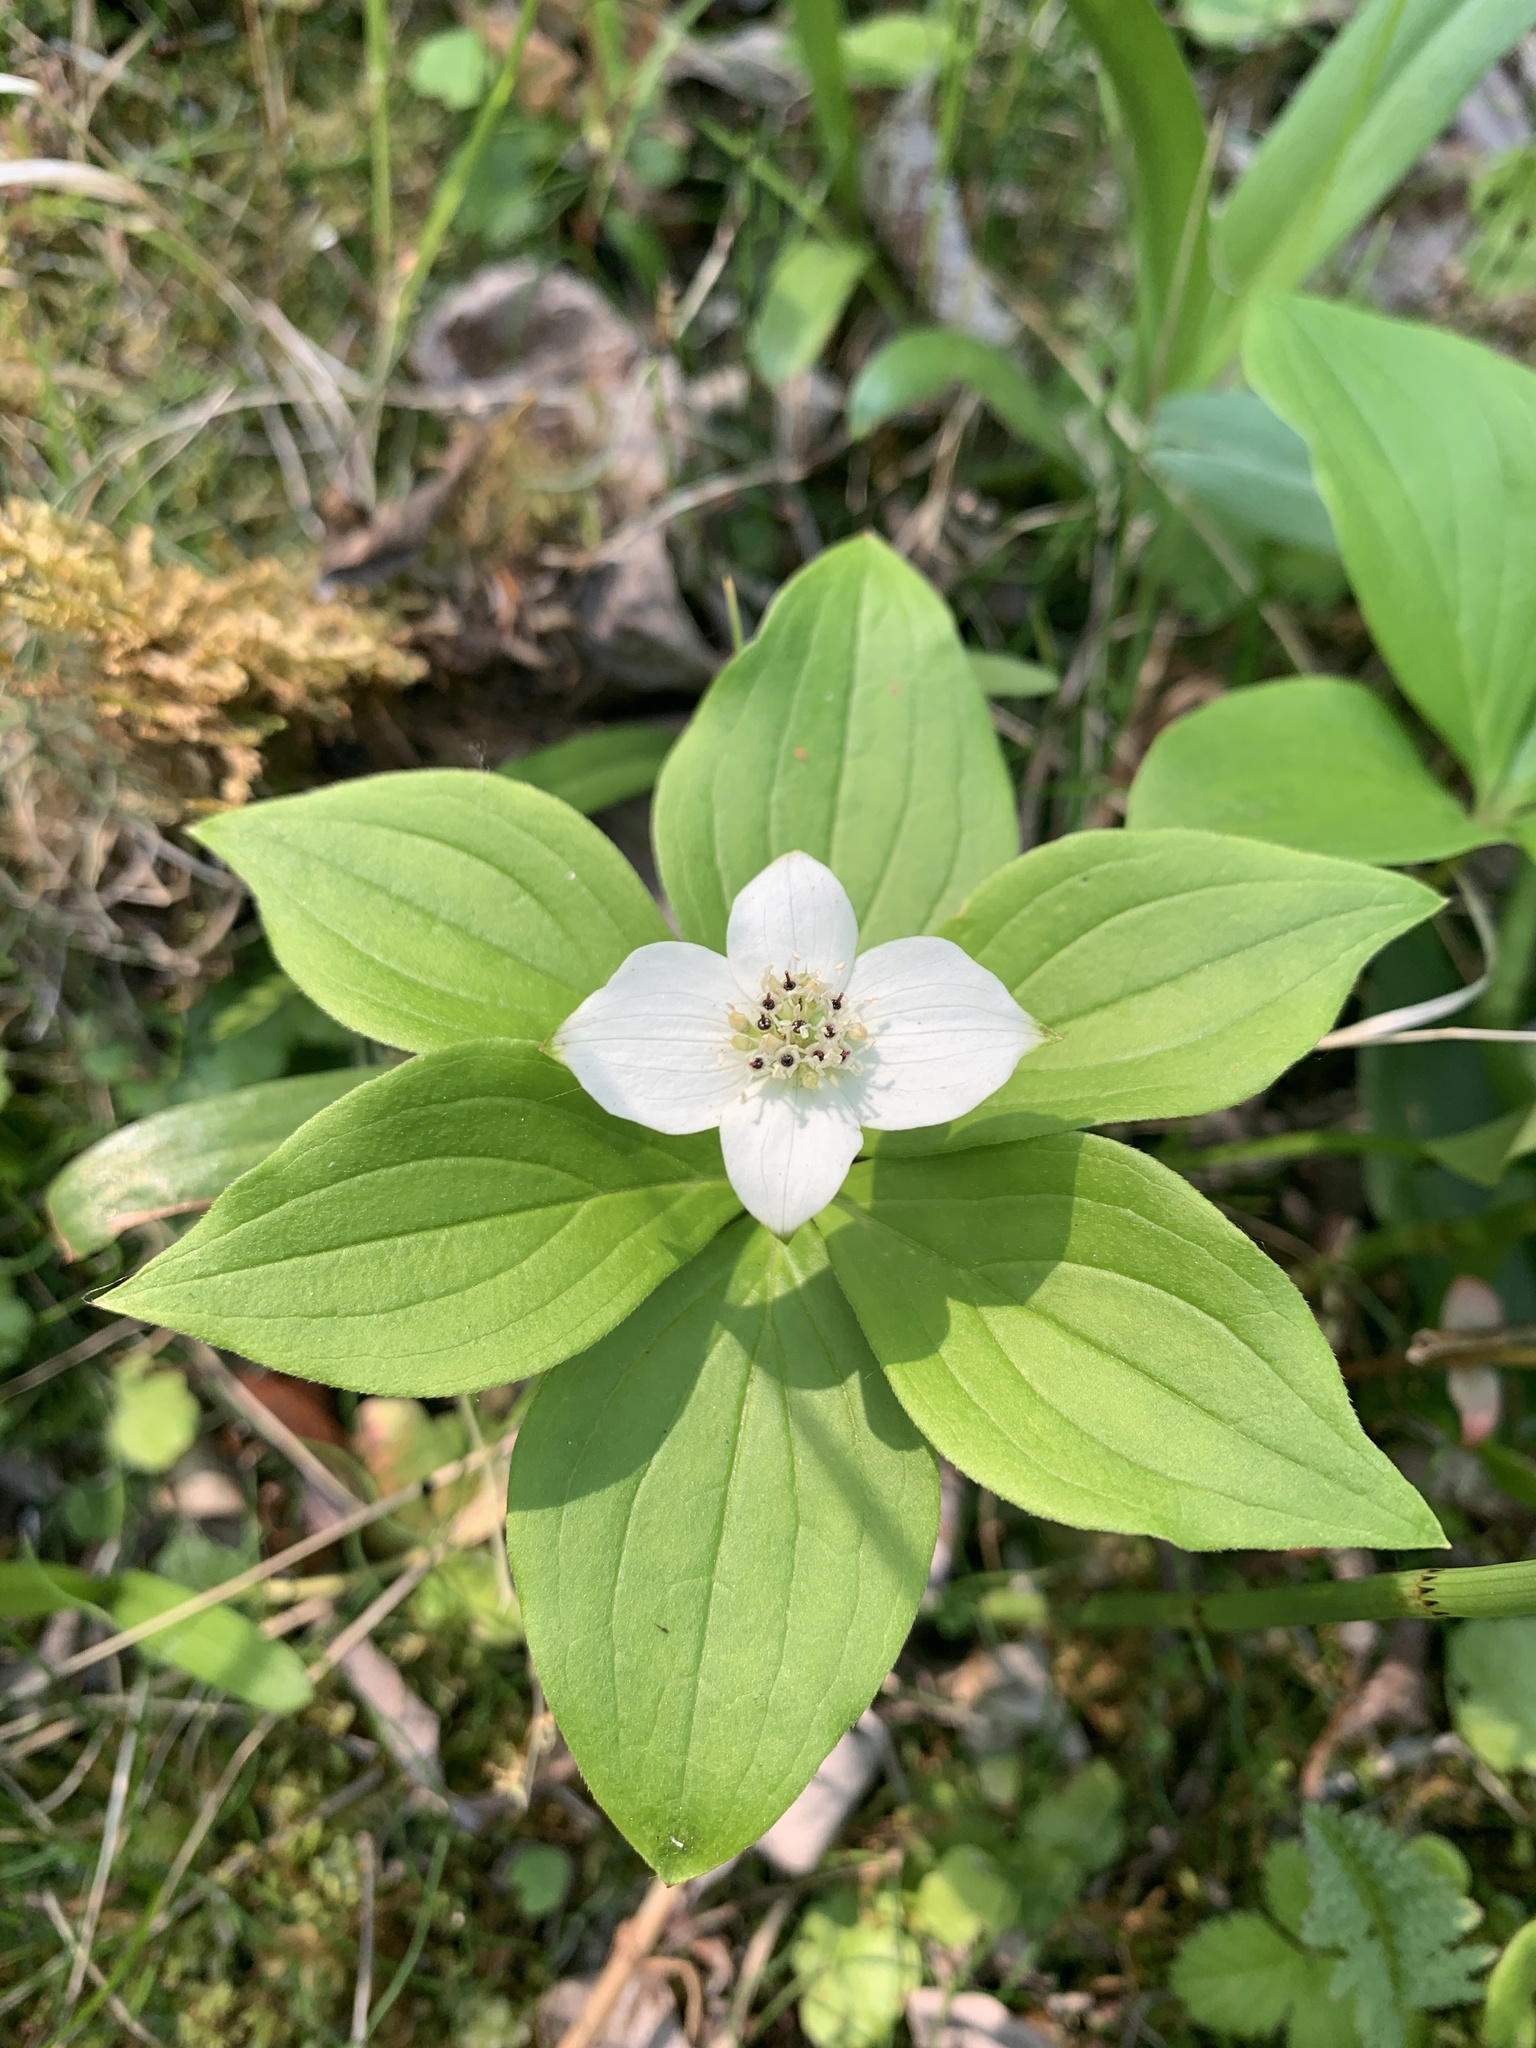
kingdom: Plantae
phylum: Tracheophyta
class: Magnoliopsida
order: Cornales
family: Cornaceae
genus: Cornus
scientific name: Cornus canadensis
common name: Creeping dogwood
